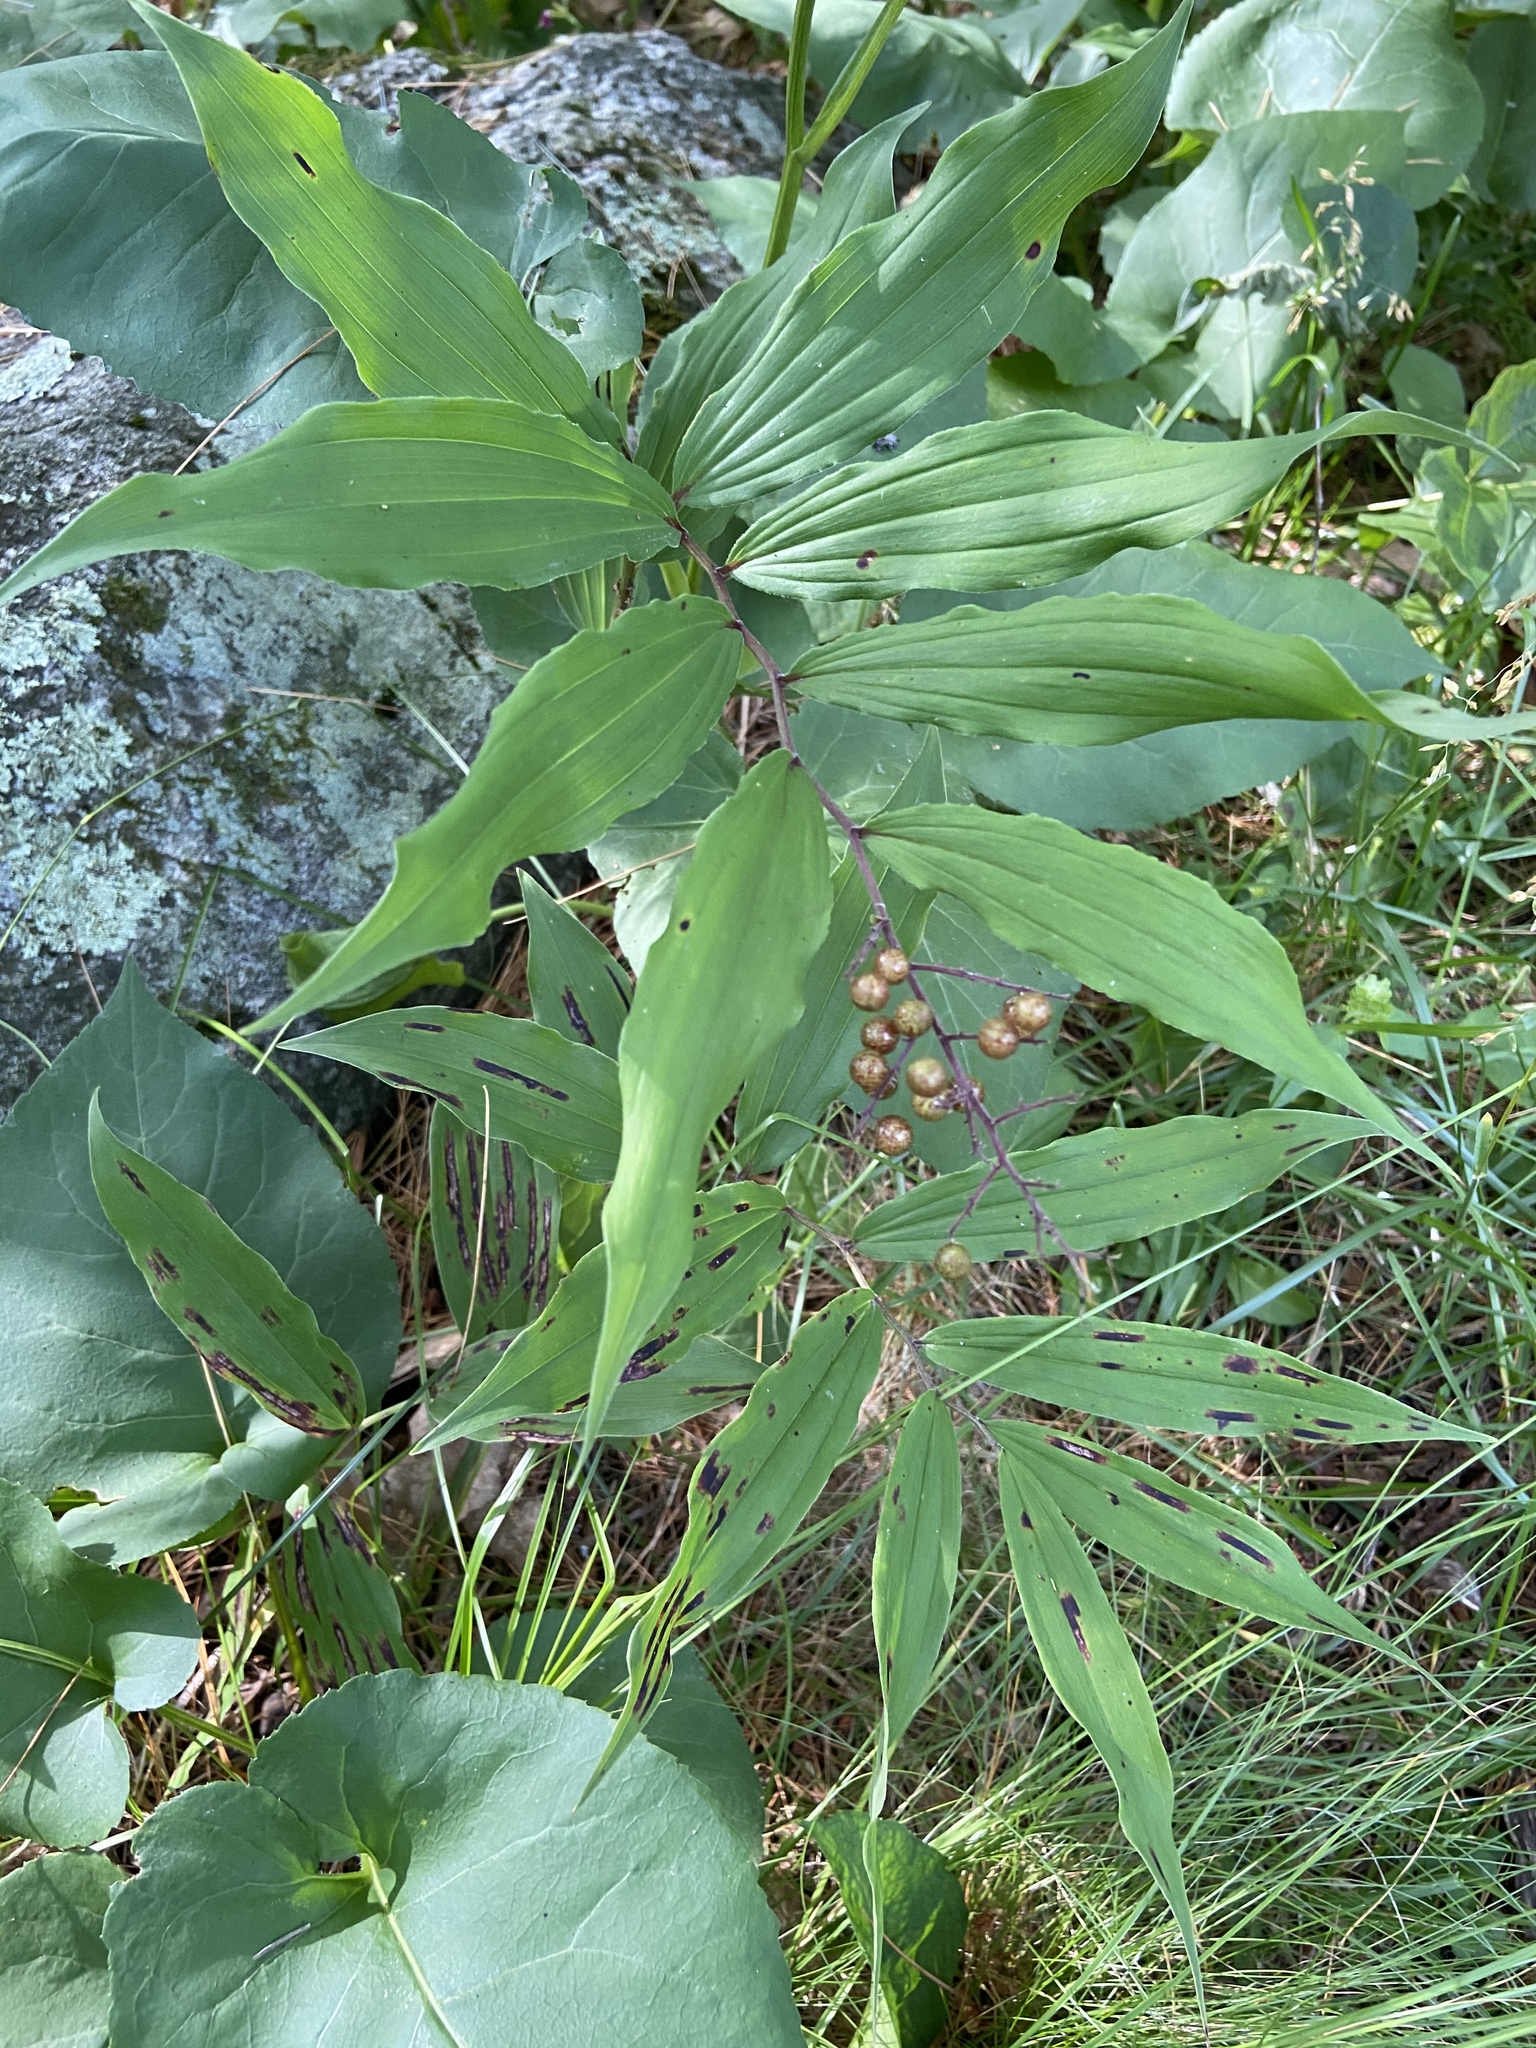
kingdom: Plantae
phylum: Tracheophyta
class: Liliopsida
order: Asparagales
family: Asparagaceae
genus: Maianthemum
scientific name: Maianthemum racemosum
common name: False spikenard
